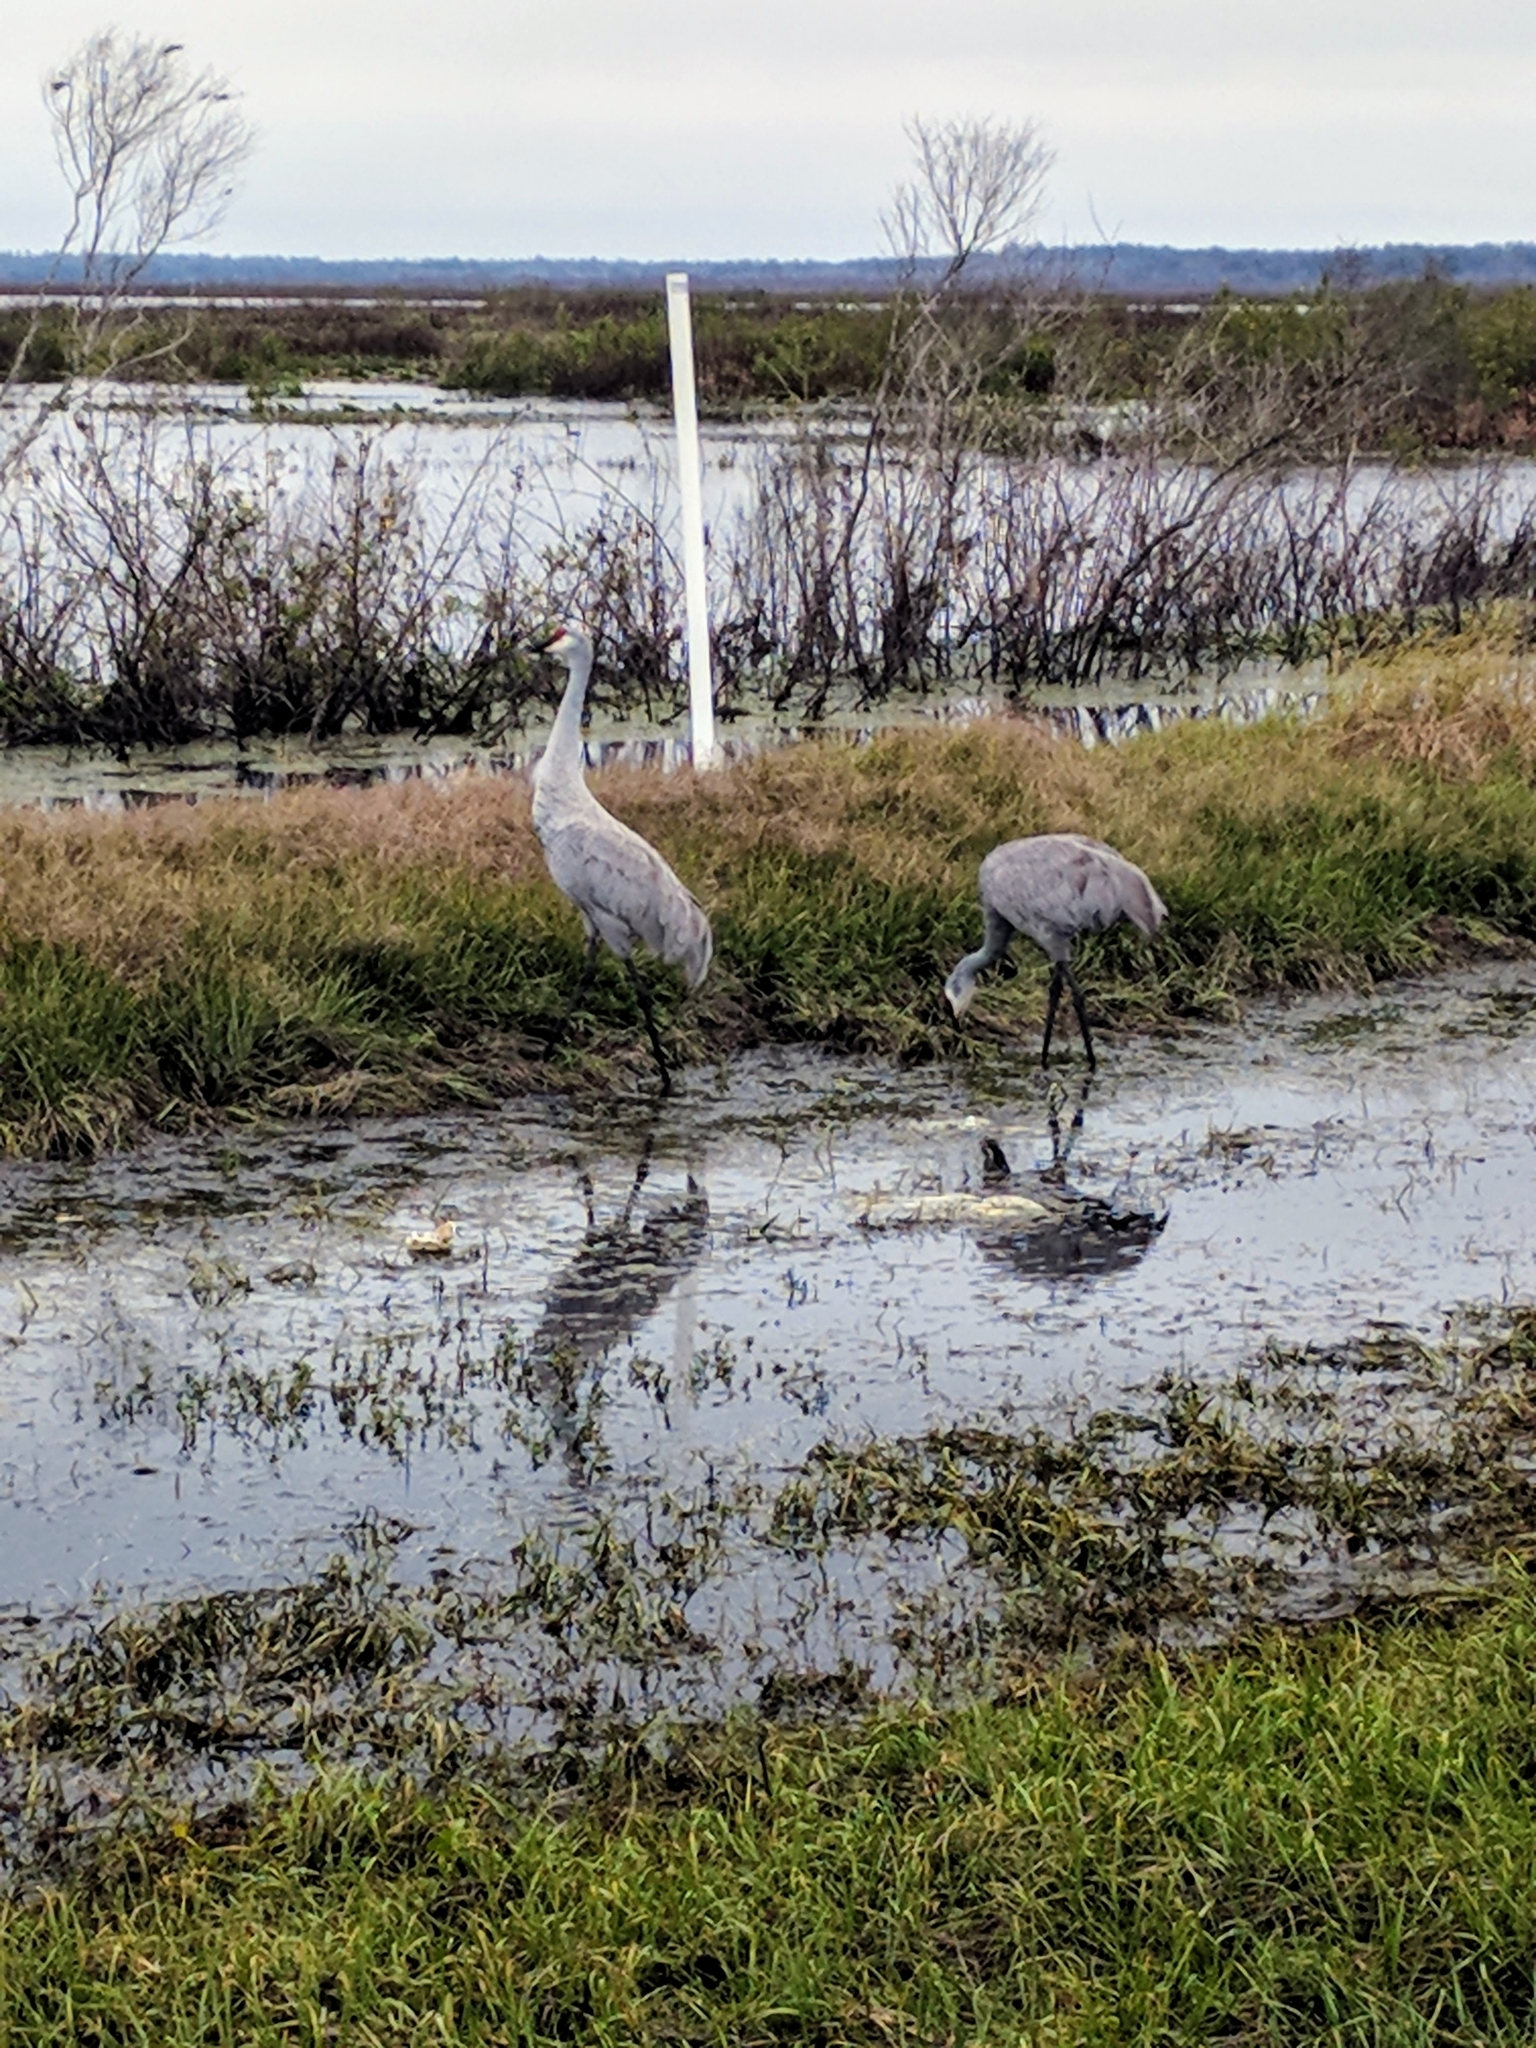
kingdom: Animalia
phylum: Chordata
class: Aves
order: Gruiformes
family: Gruidae
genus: Grus
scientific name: Grus canadensis
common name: Sandhill crane
